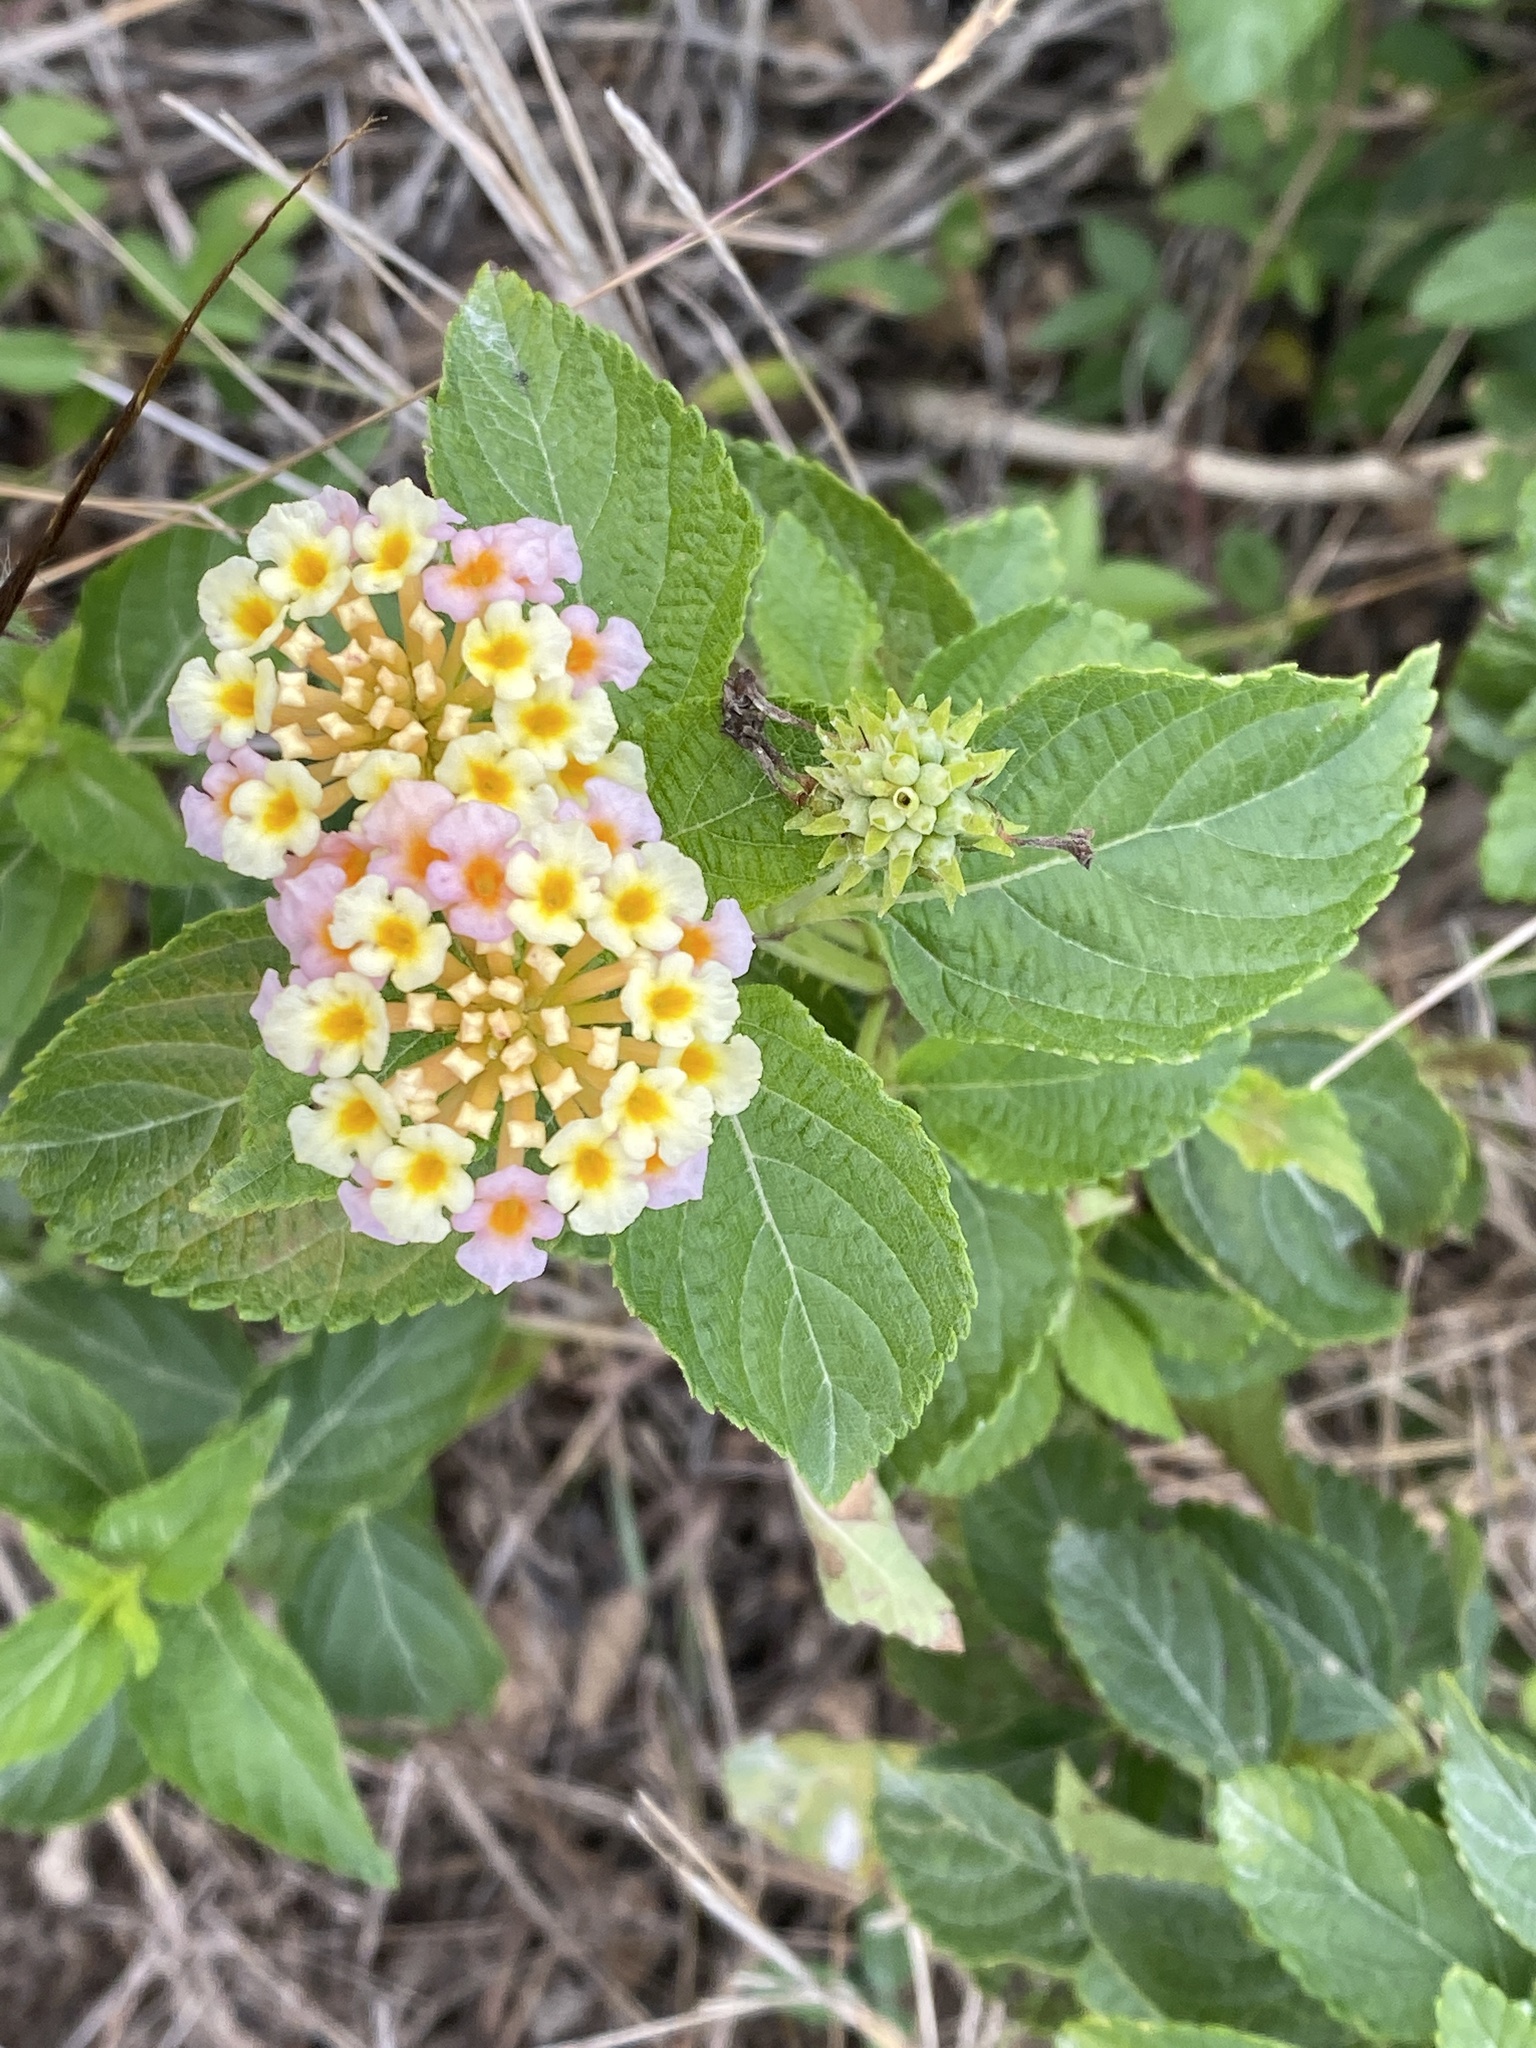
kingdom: Plantae
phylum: Tracheophyta
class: Magnoliopsida
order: Lamiales
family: Verbenaceae
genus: Lantana
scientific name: Lantana strigocamara
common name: Lantana
